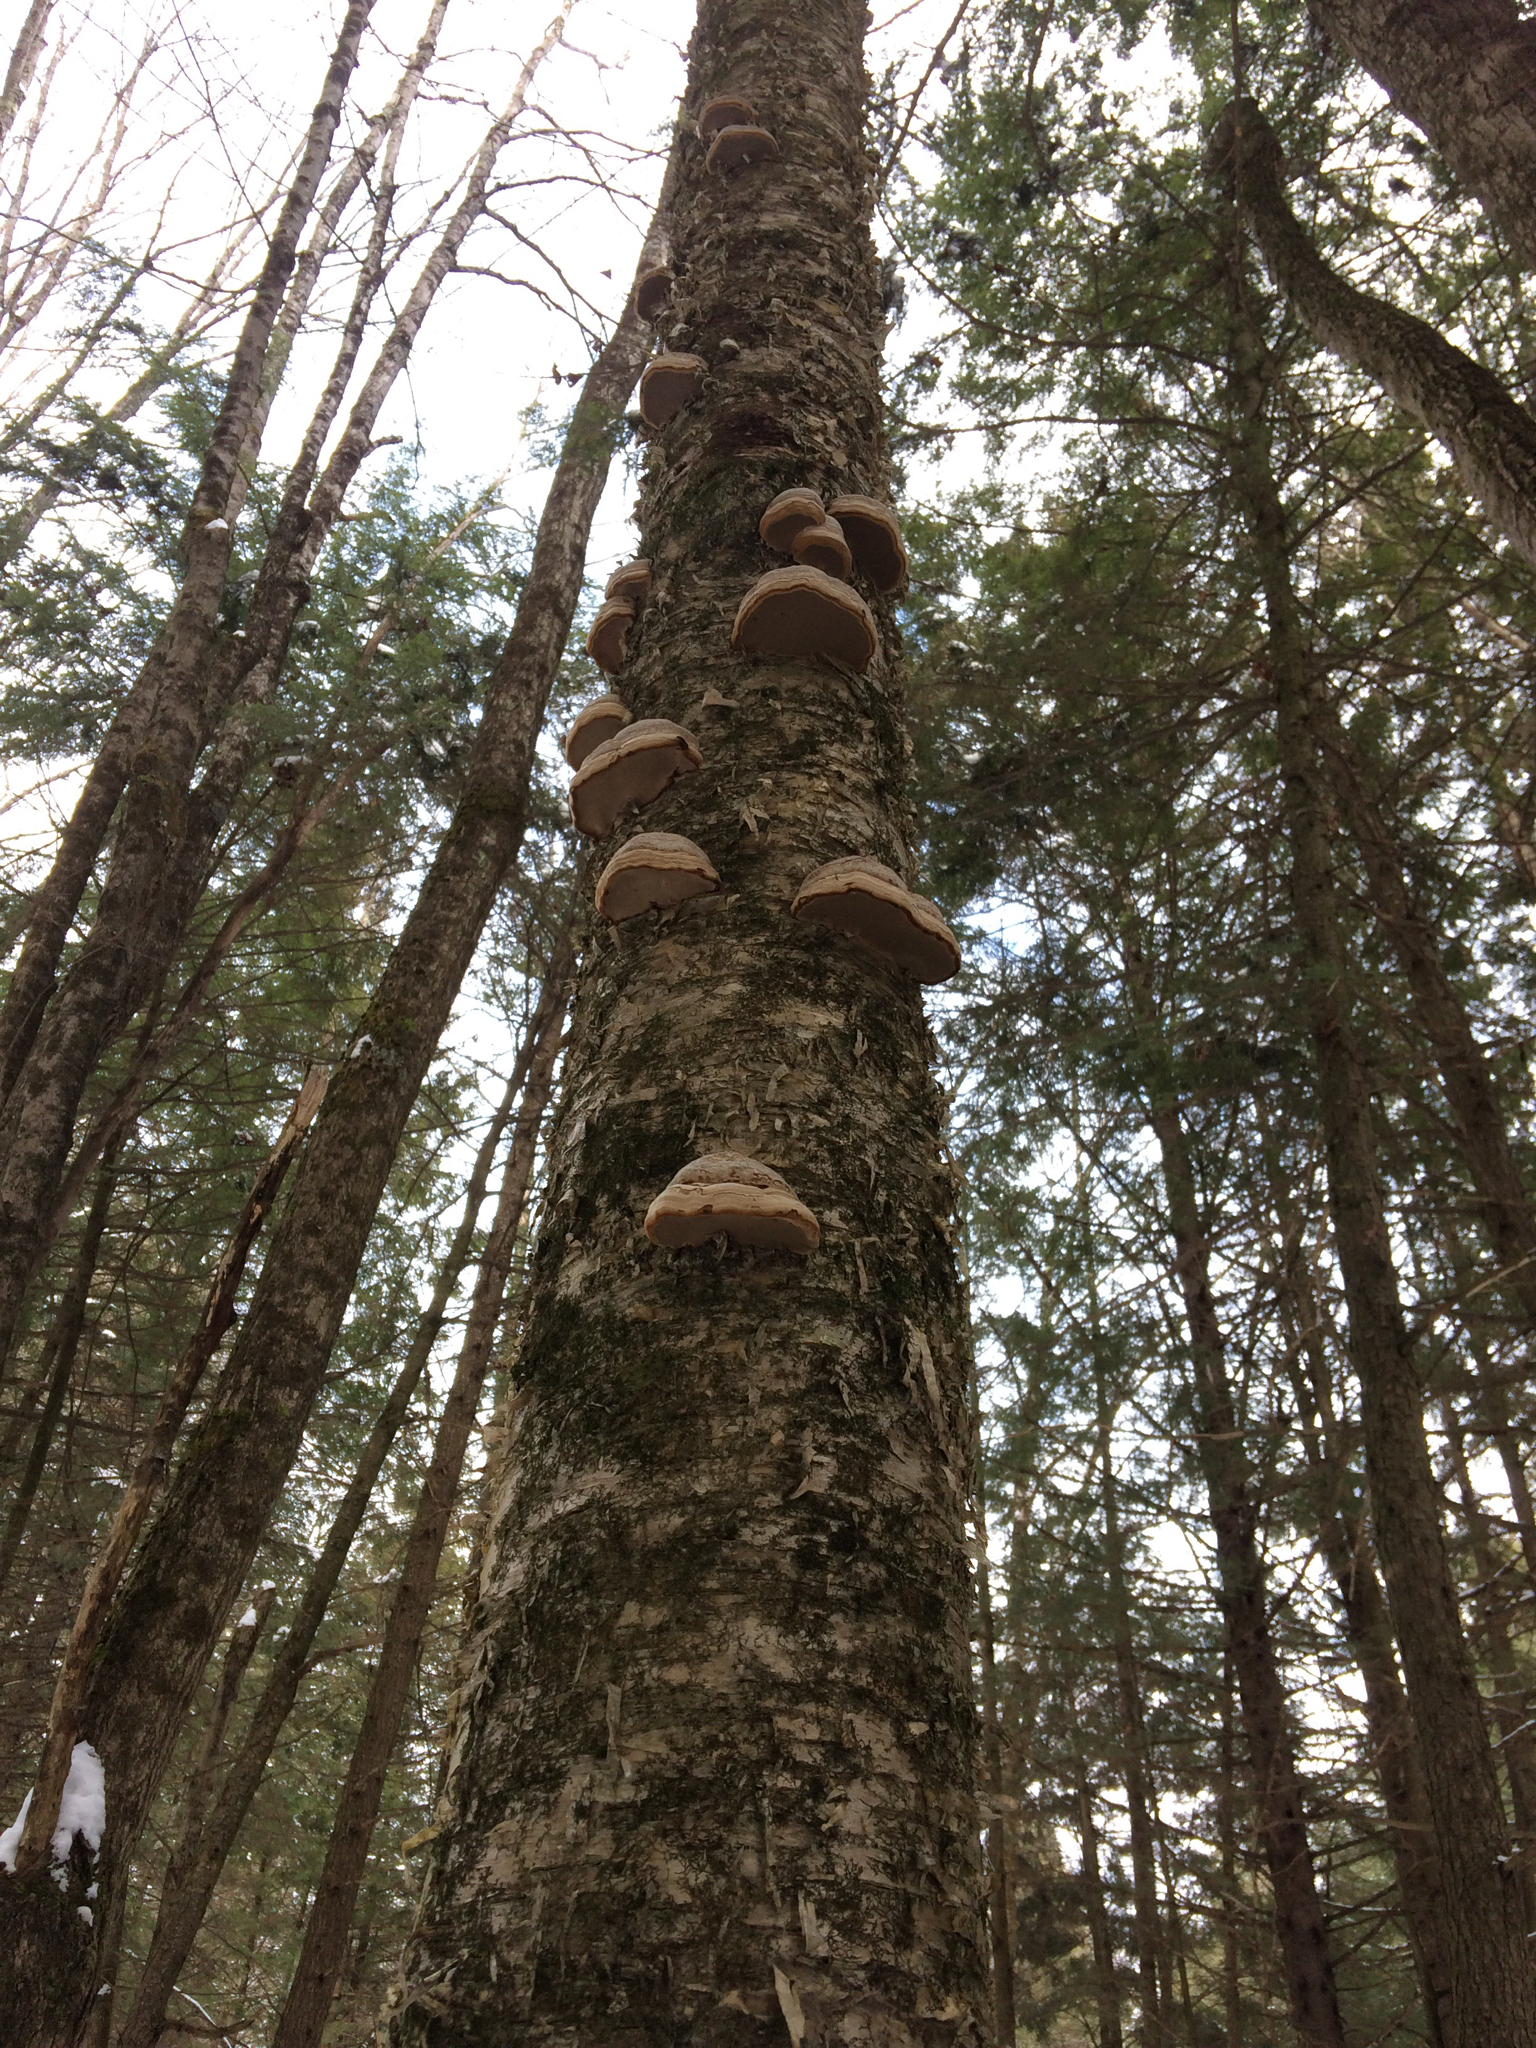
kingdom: Fungi
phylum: Basidiomycota
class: Agaricomycetes
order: Polyporales
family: Fomitopsidaceae
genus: Fomitopsis
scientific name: Fomitopsis betulina
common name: Birch polypore
